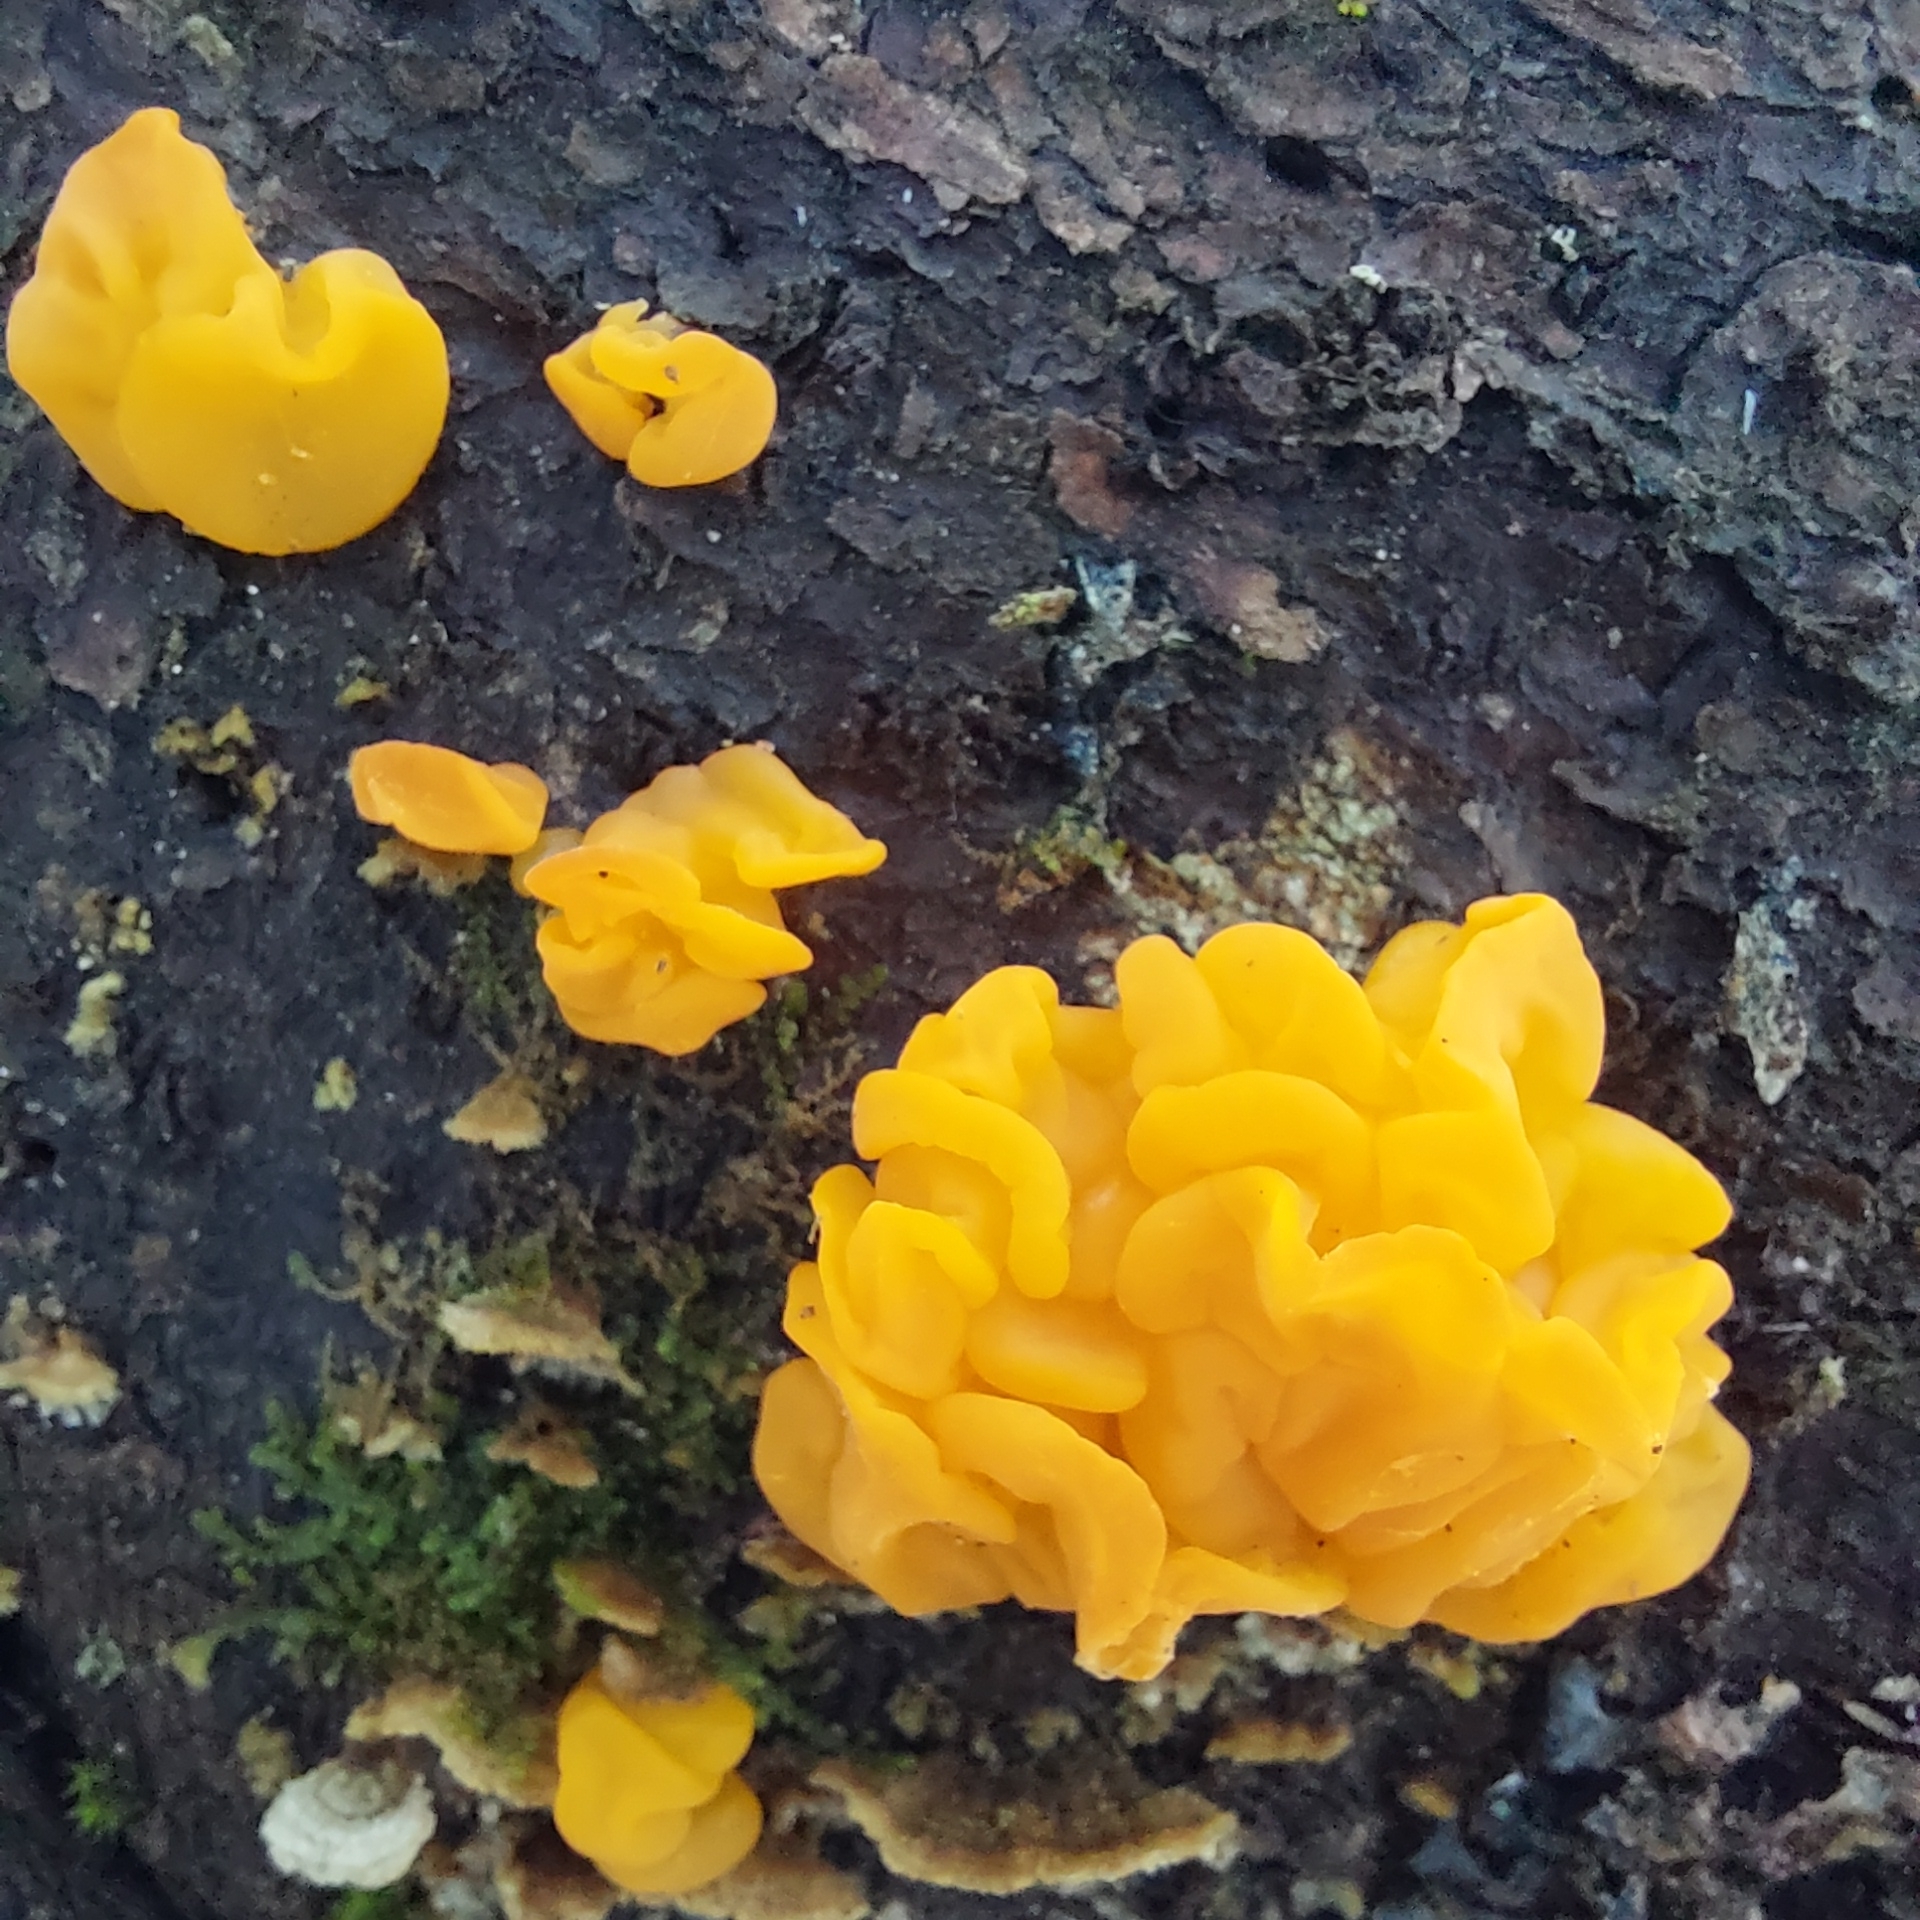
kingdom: Fungi
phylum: Basidiomycota
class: Dacrymycetes
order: Dacrymycetales
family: Dacrymycetaceae
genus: Dacrymyces
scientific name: Dacrymyces chrysospermus
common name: Orange jelly spot
